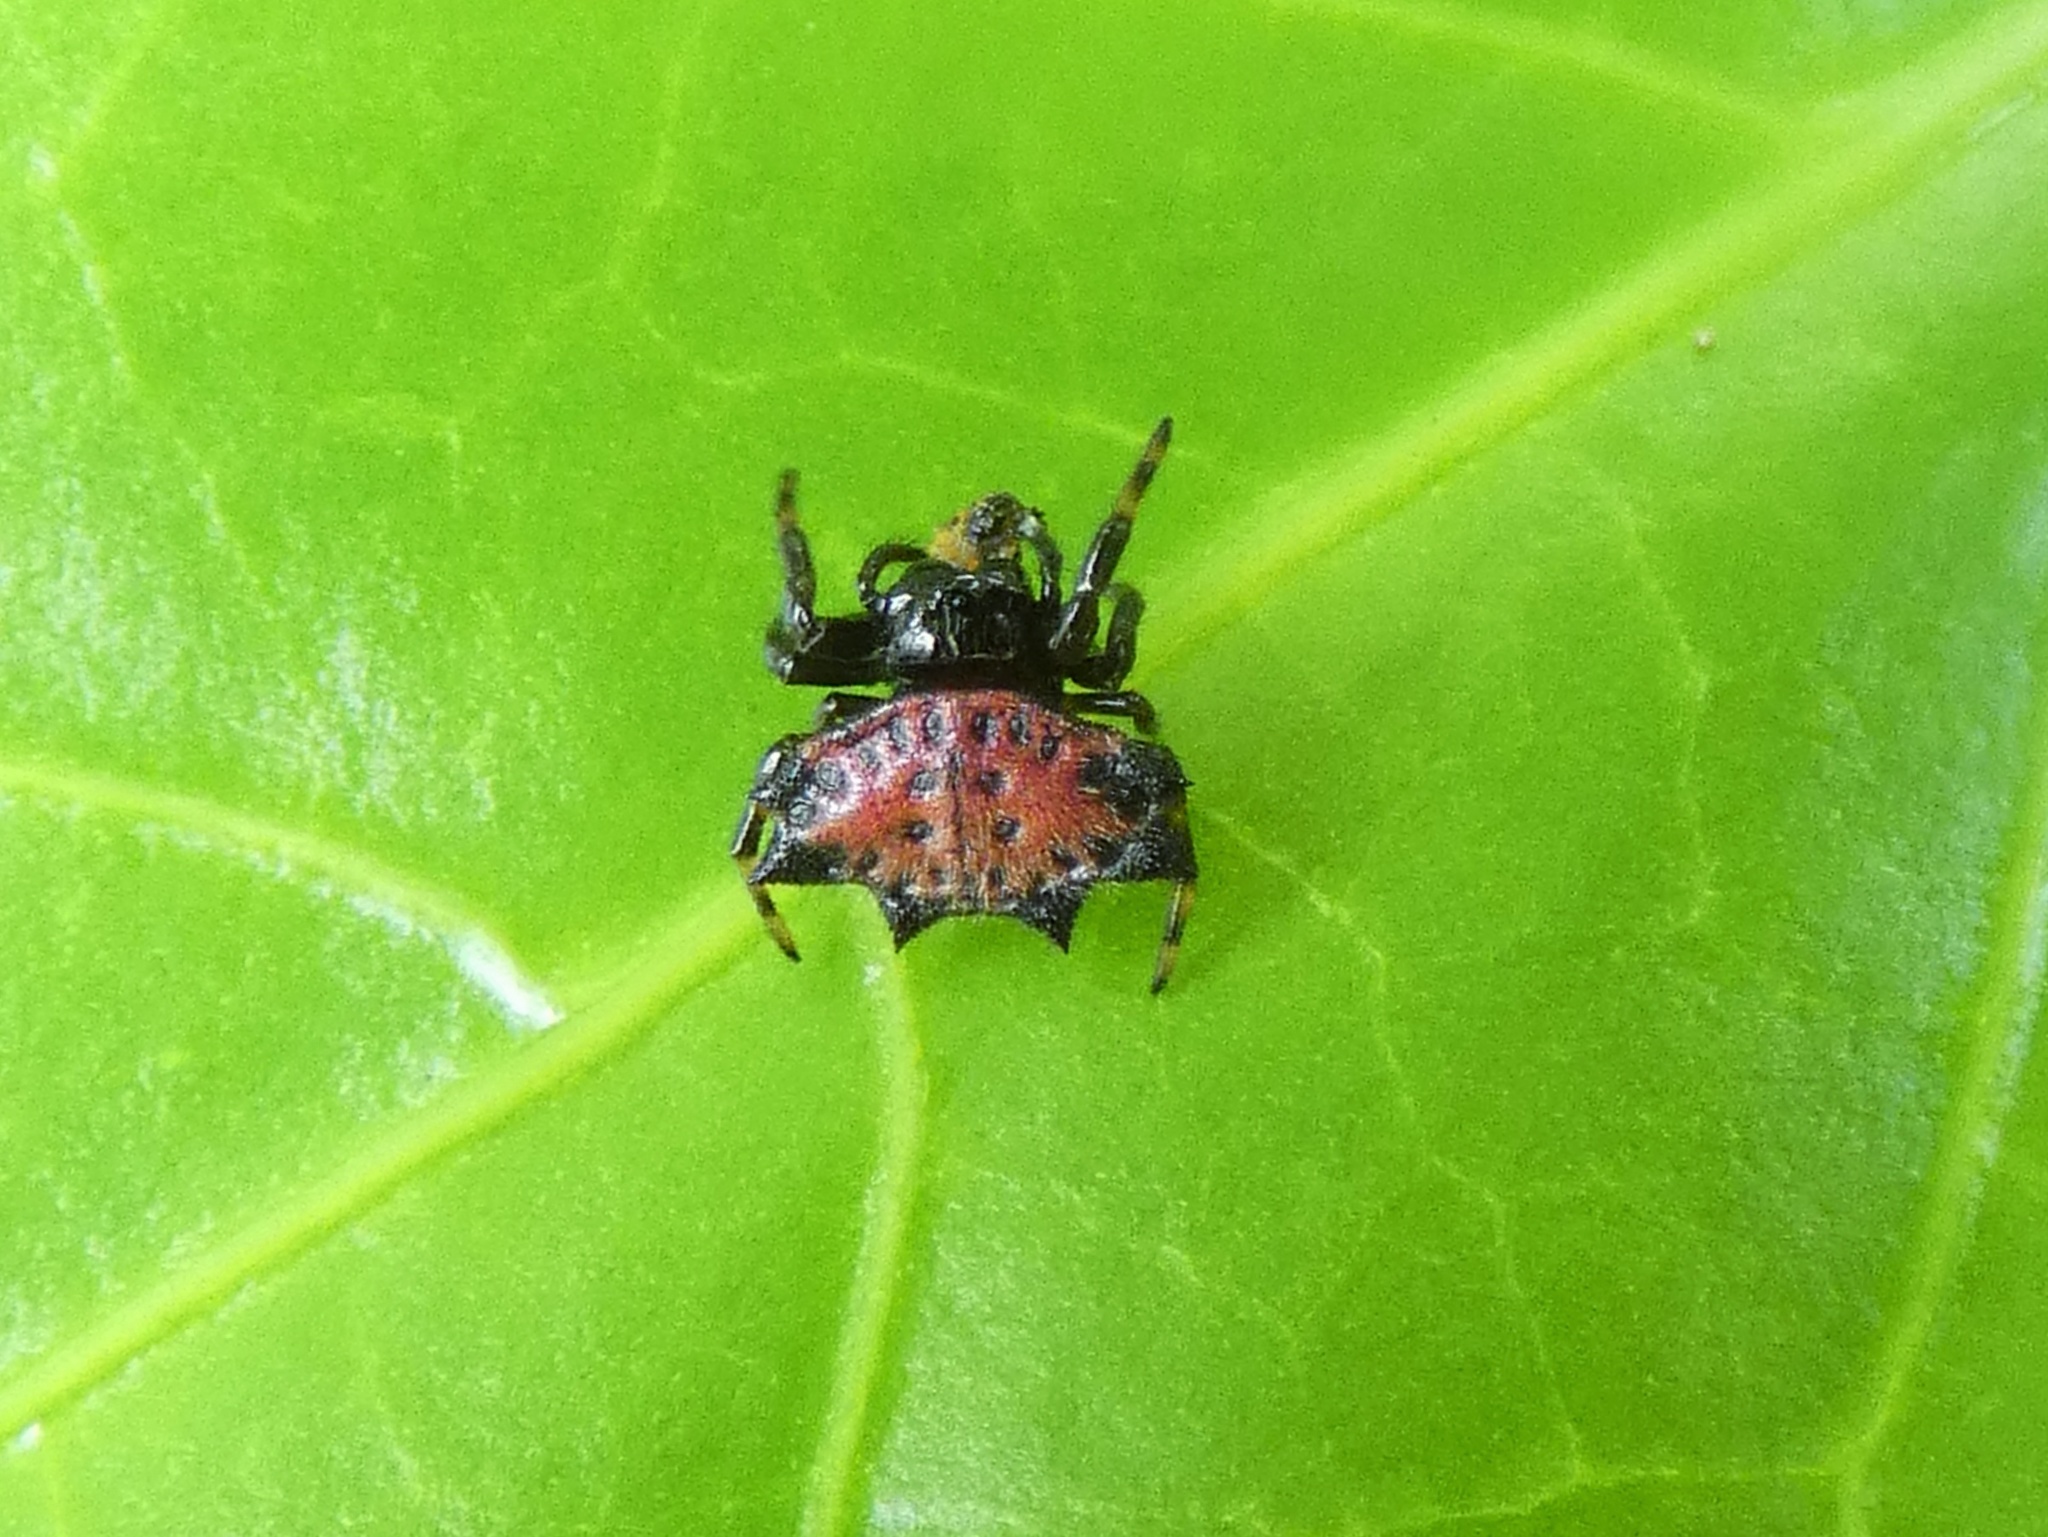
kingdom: Animalia
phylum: Arthropoda
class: Arachnida
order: Araneae
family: Araneidae
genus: Gasteracantha
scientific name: Gasteracantha cancriformis
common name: Orb weavers
